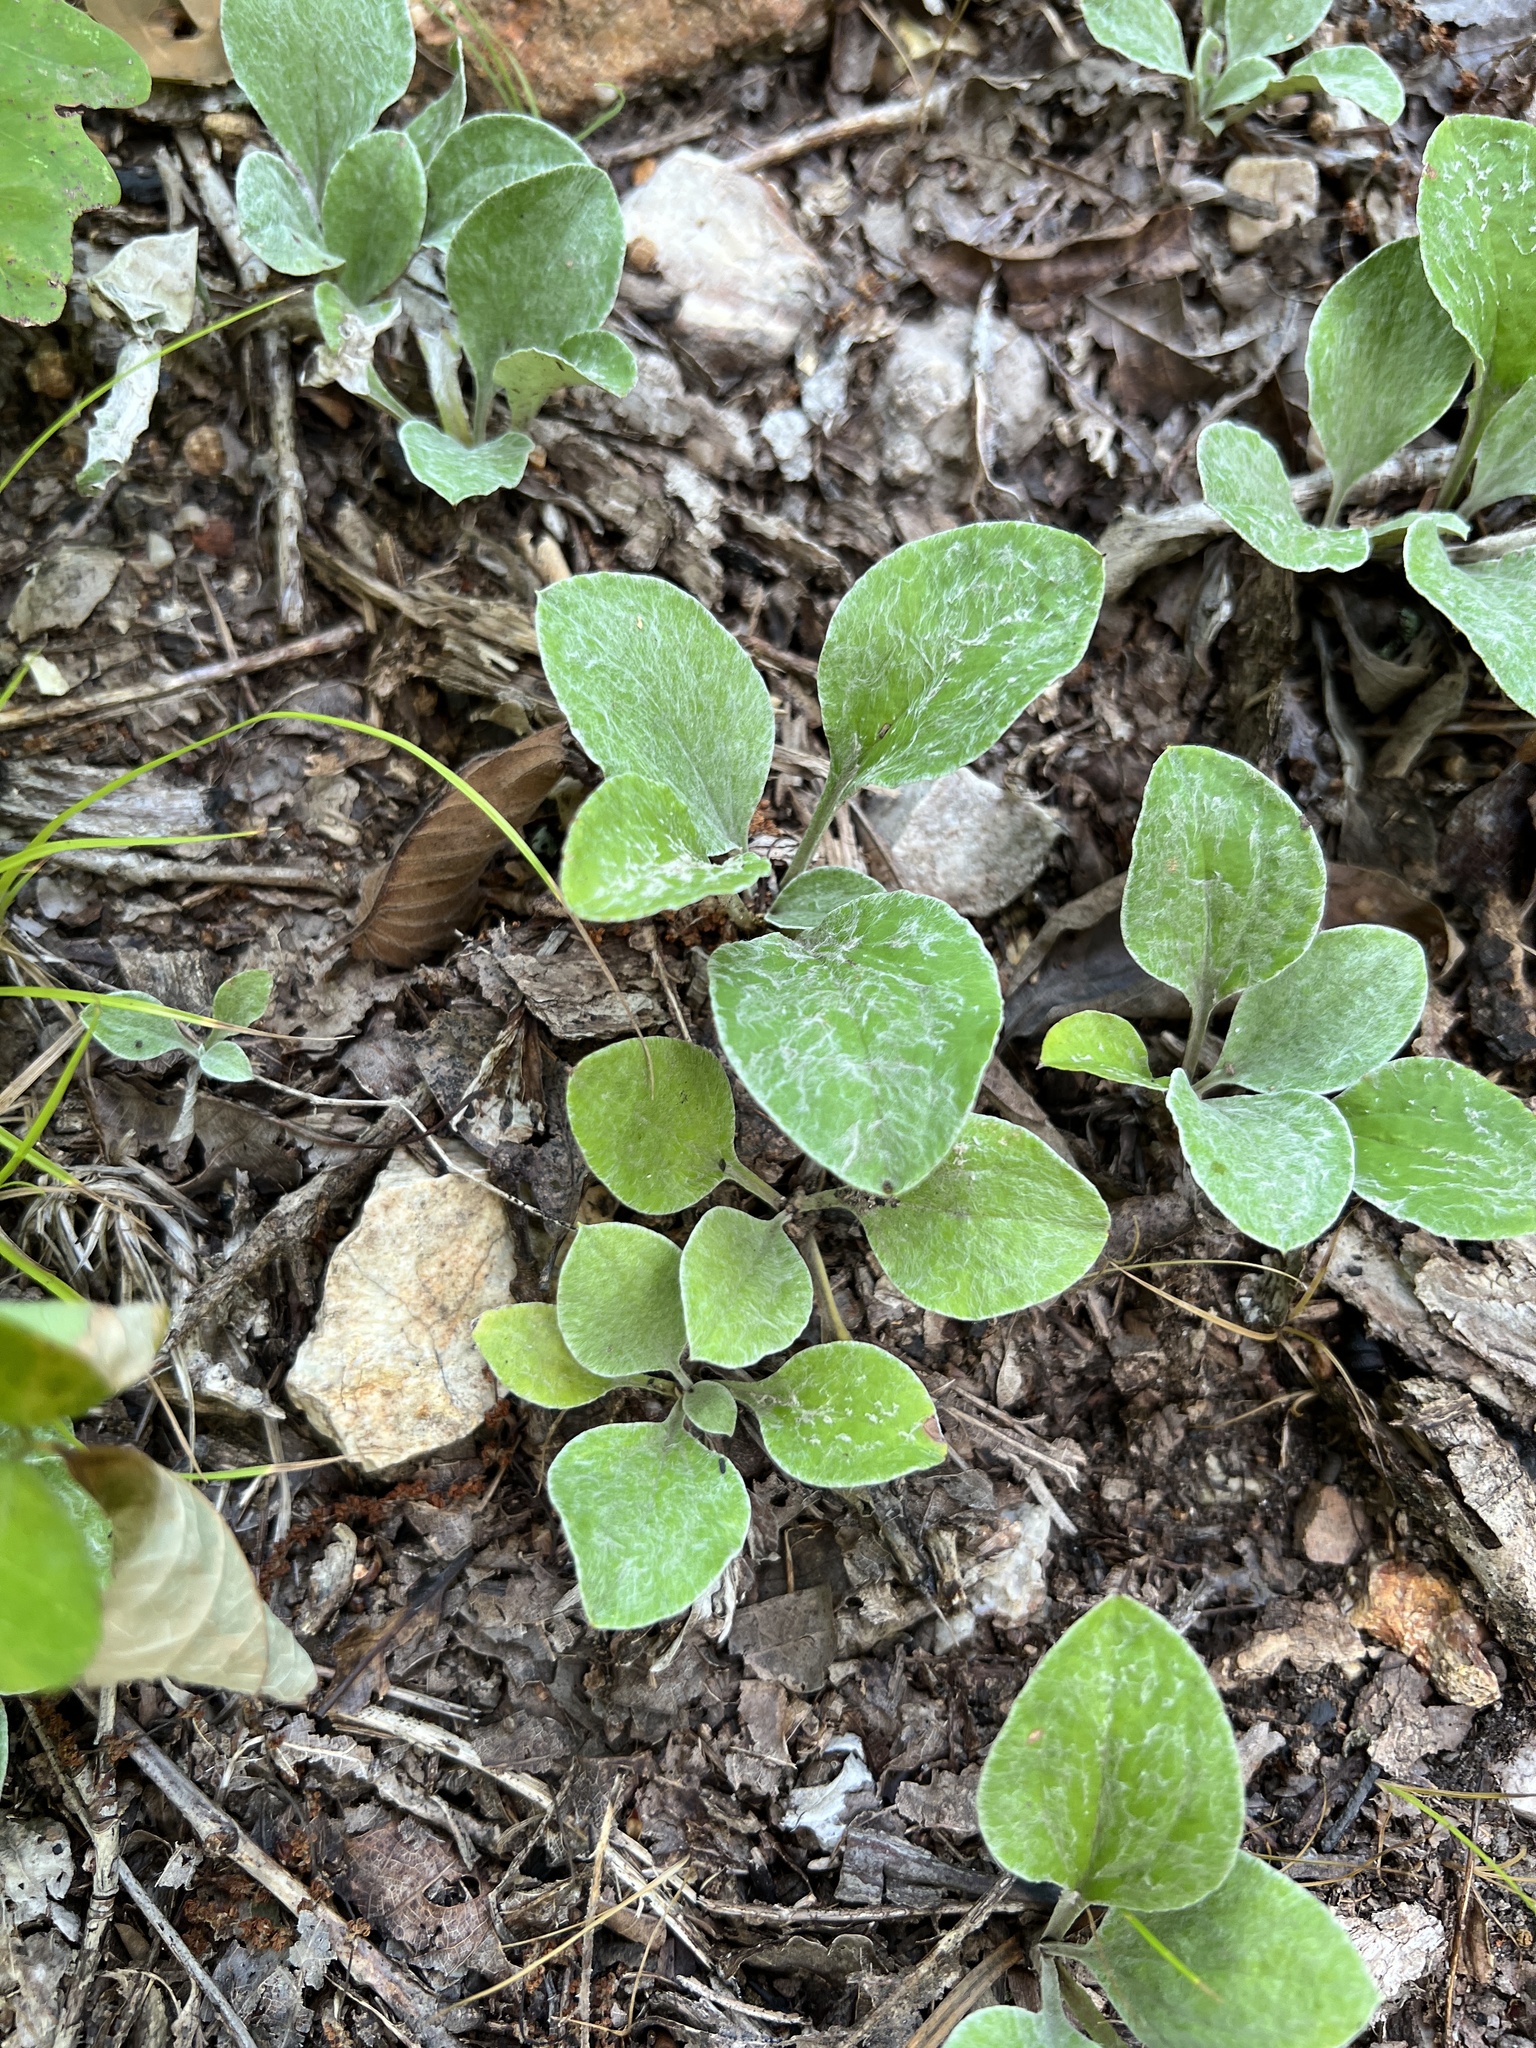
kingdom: Plantae
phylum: Tracheophyta
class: Magnoliopsida
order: Asterales
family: Asteraceae
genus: Antennaria
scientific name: Antennaria parlinii
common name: Parlin's pussytoes
